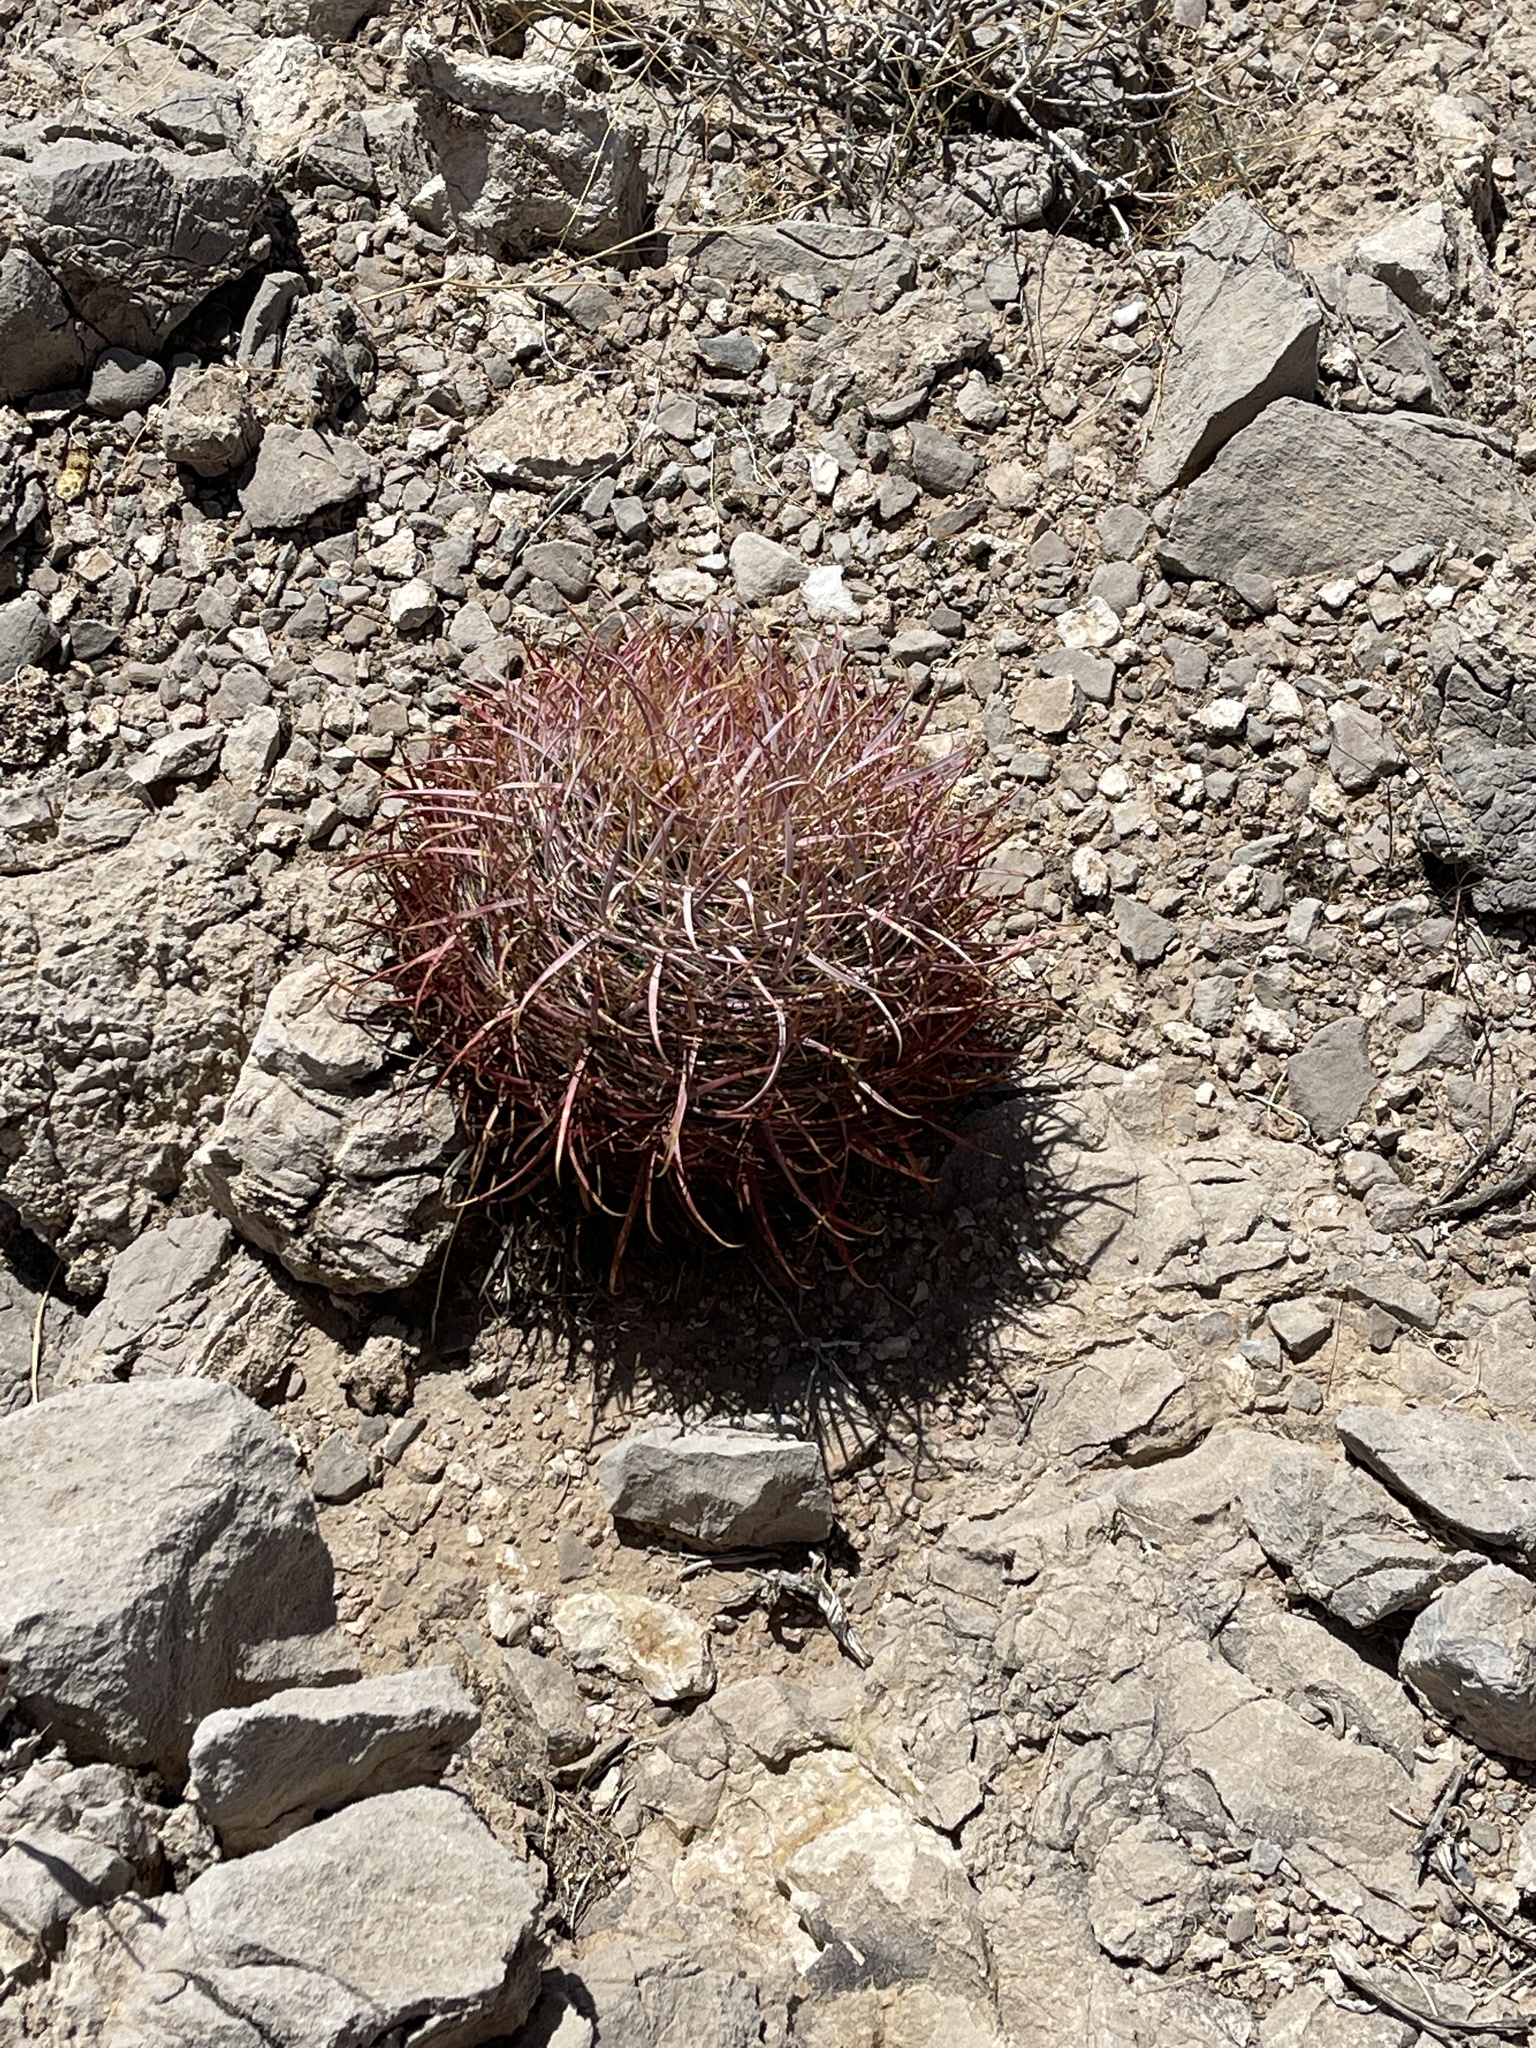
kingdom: Plantae
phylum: Tracheophyta
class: Magnoliopsida
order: Caryophyllales
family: Cactaceae
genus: Ferocactus
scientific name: Ferocactus cylindraceus
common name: California barrel cactus
